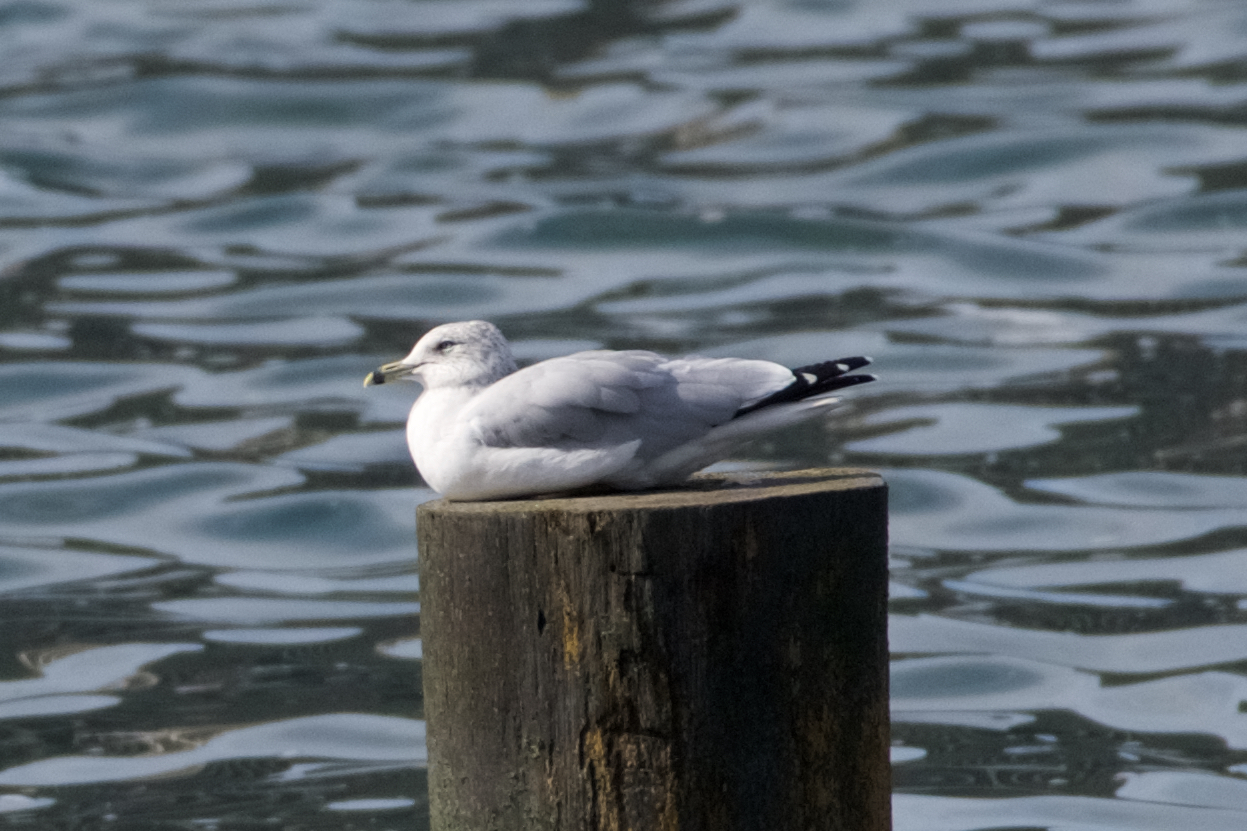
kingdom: Animalia
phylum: Chordata
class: Aves
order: Charadriiformes
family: Laridae
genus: Larus
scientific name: Larus delawarensis
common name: Ring-billed gull
